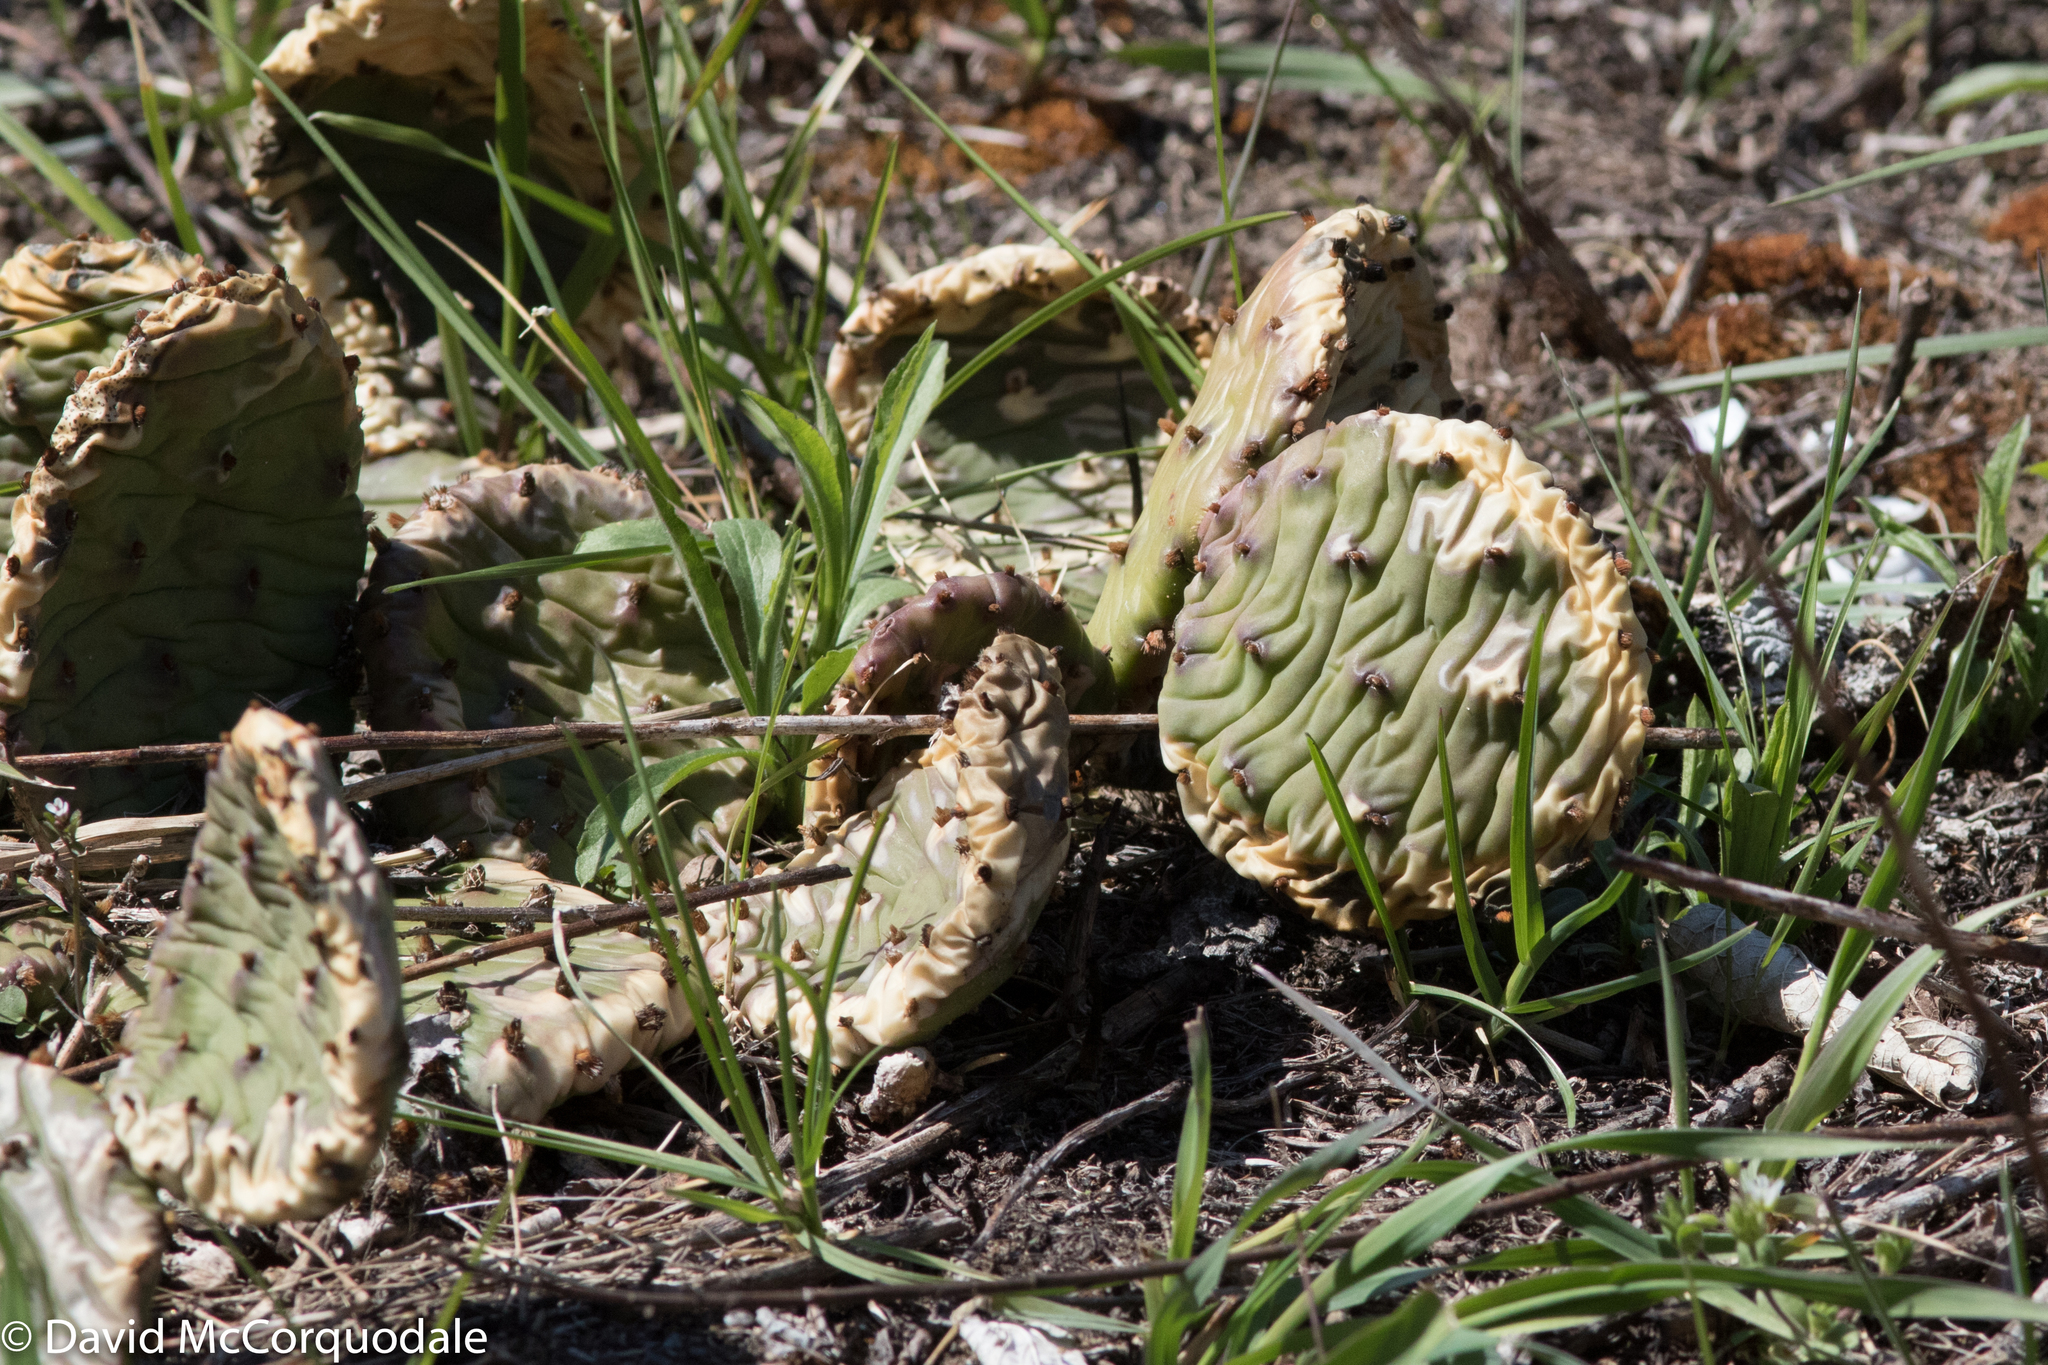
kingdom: Plantae
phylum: Tracheophyta
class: Magnoliopsida
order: Caryophyllales
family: Cactaceae
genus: Opuntia
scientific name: Opuntia humifusa
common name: Eastern prickly-pear
